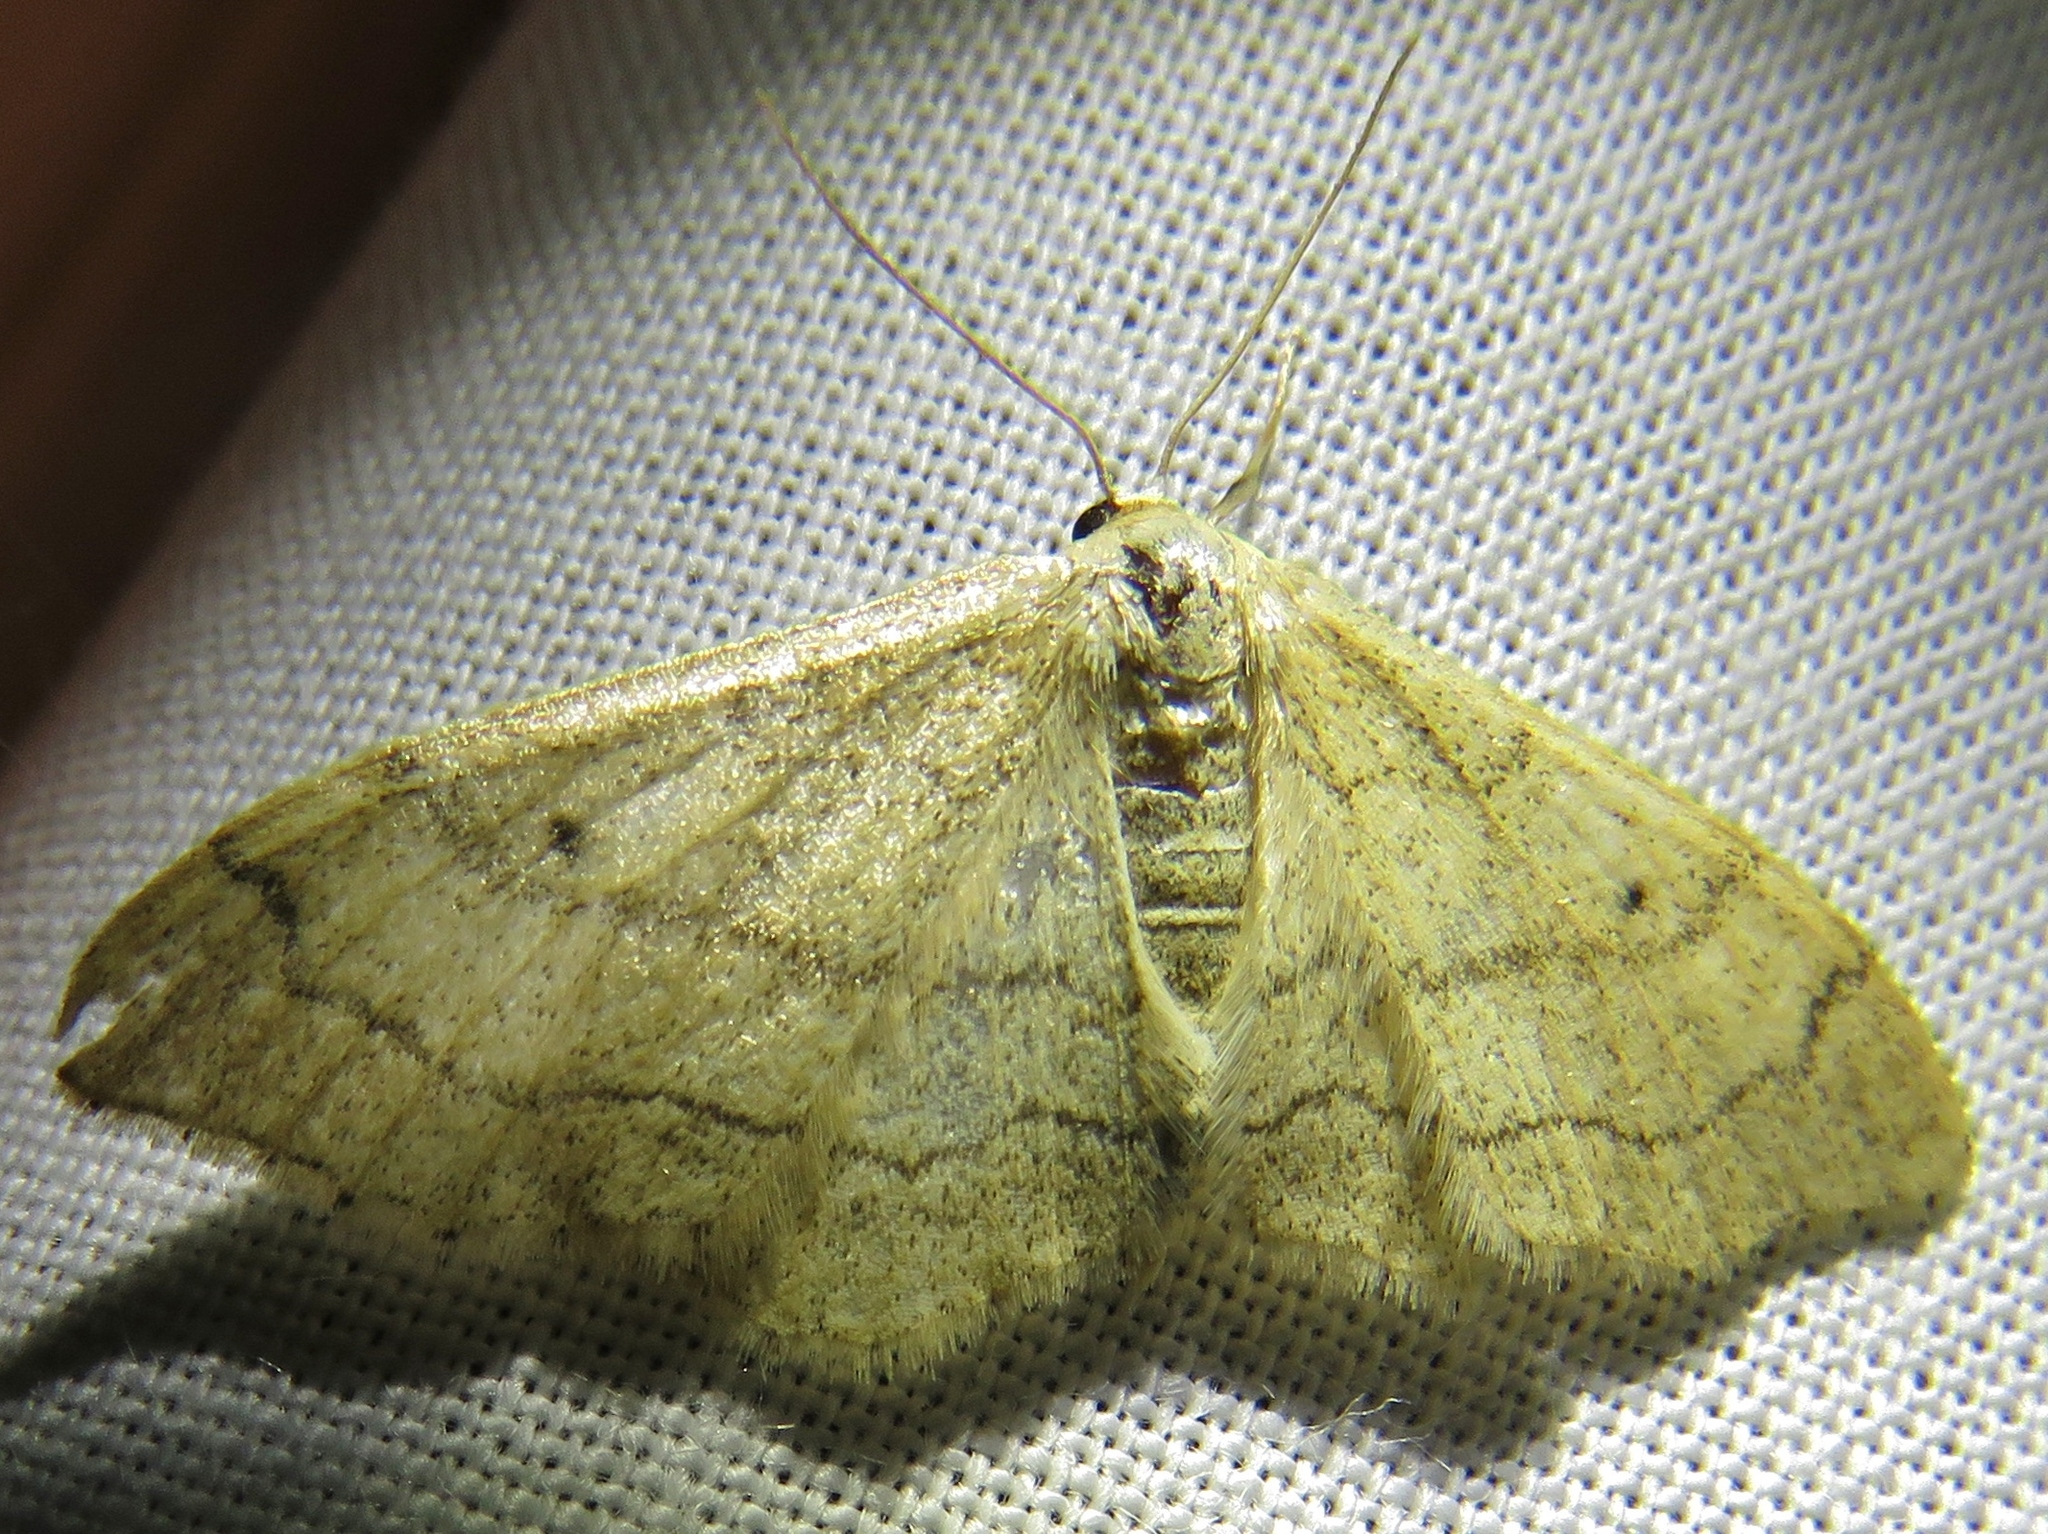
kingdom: Animalia
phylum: Arthropoda
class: Insecta
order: Lepidoptera
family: Geometridae
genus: Idaea
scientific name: Idaea aversata
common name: Riband wave
